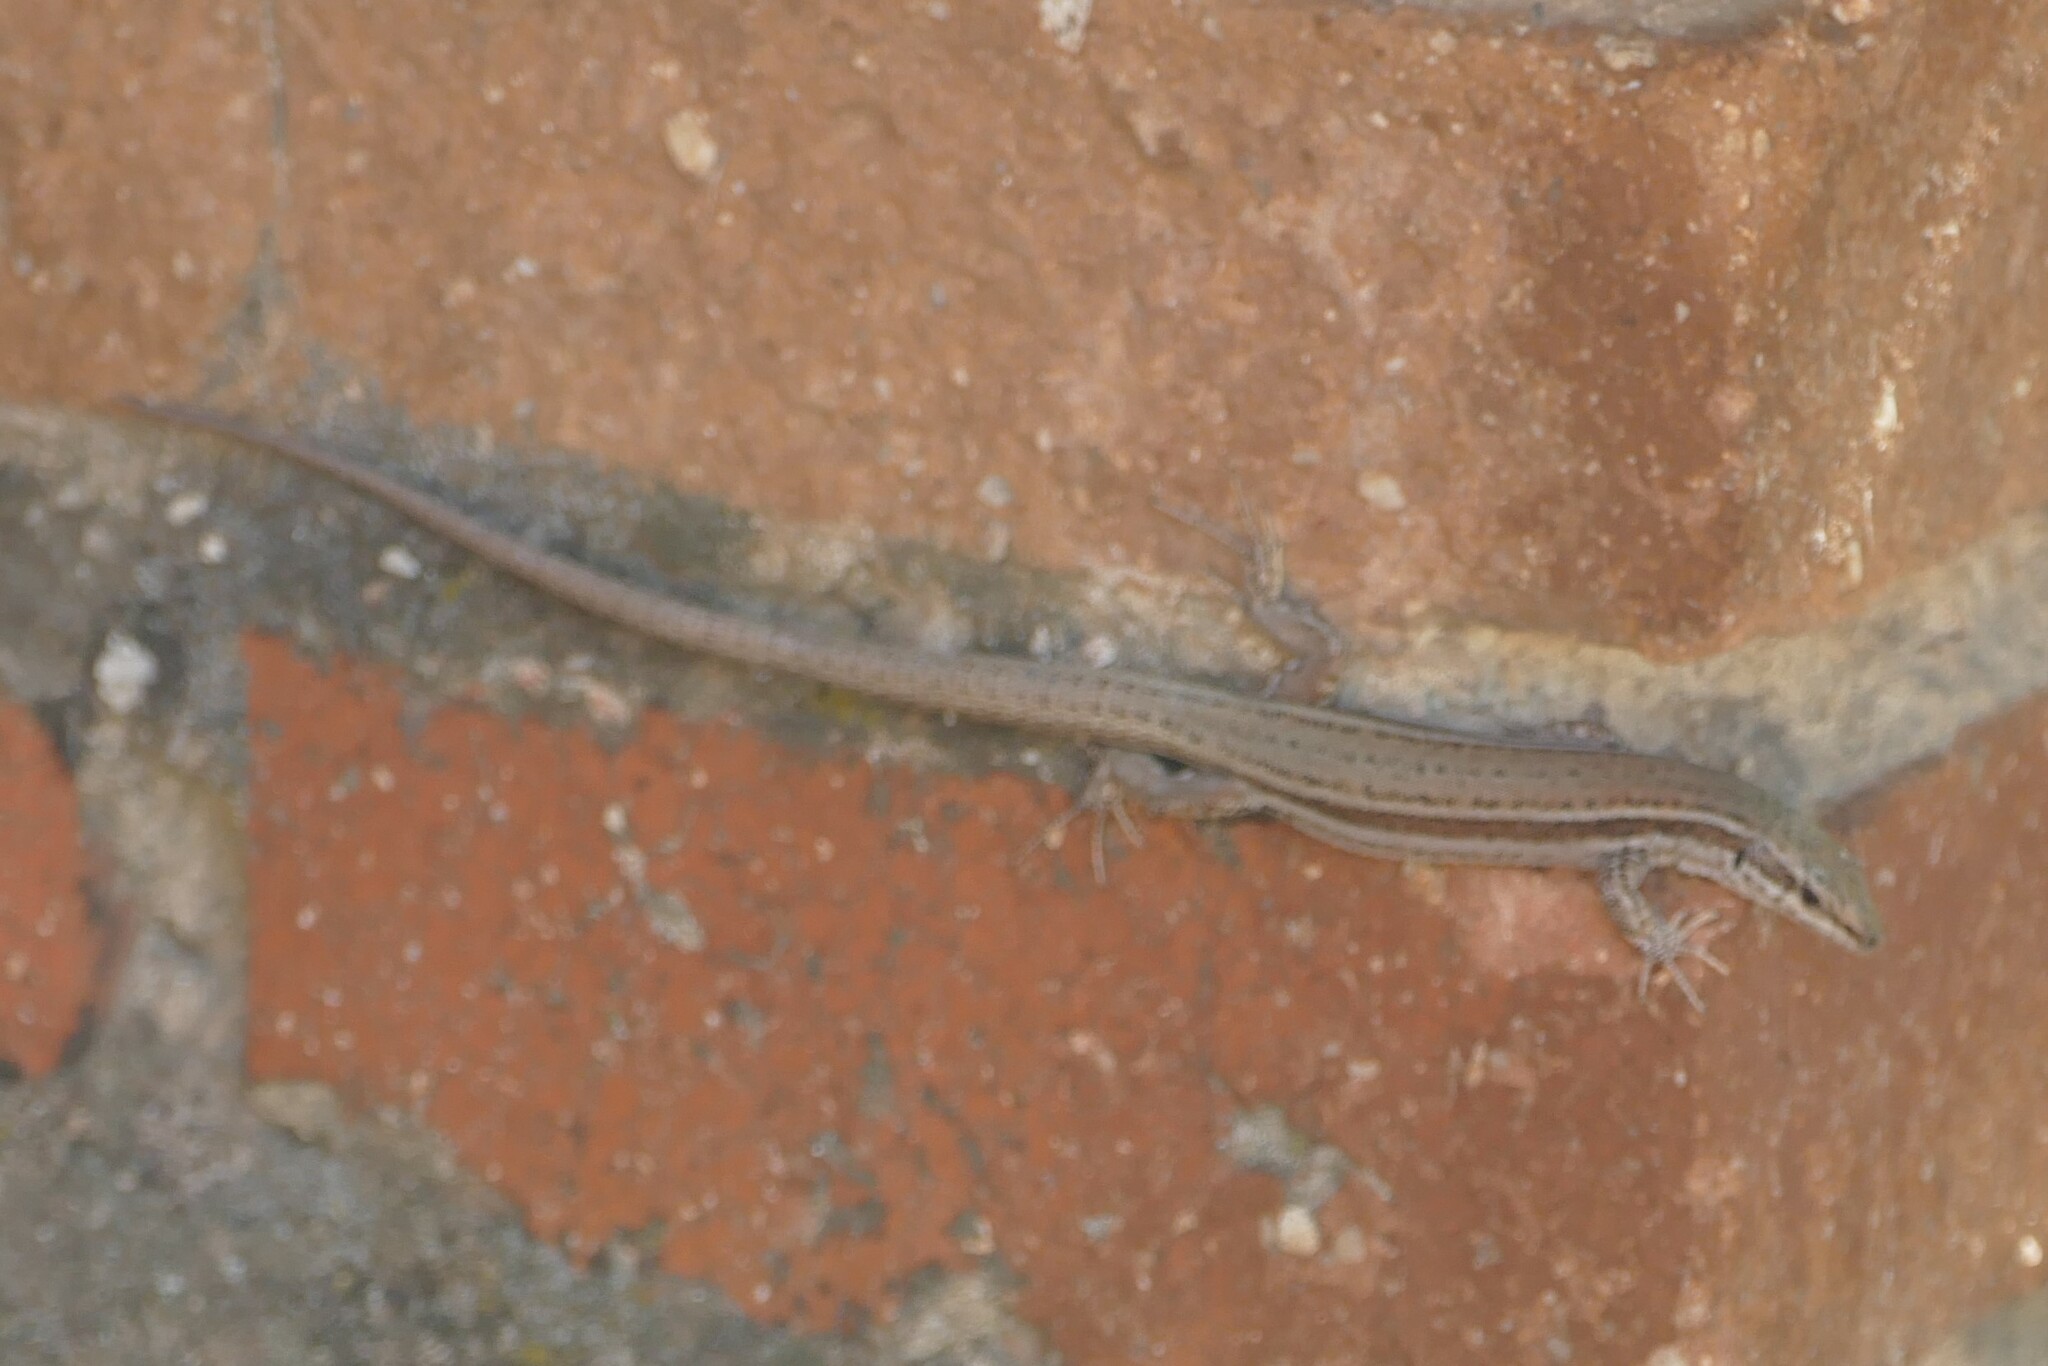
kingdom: Animalia
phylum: Chordata
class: Squamata
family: Lacertidae
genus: Podarcis
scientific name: Podarcis virescens
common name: Geniez’s wall lizard
